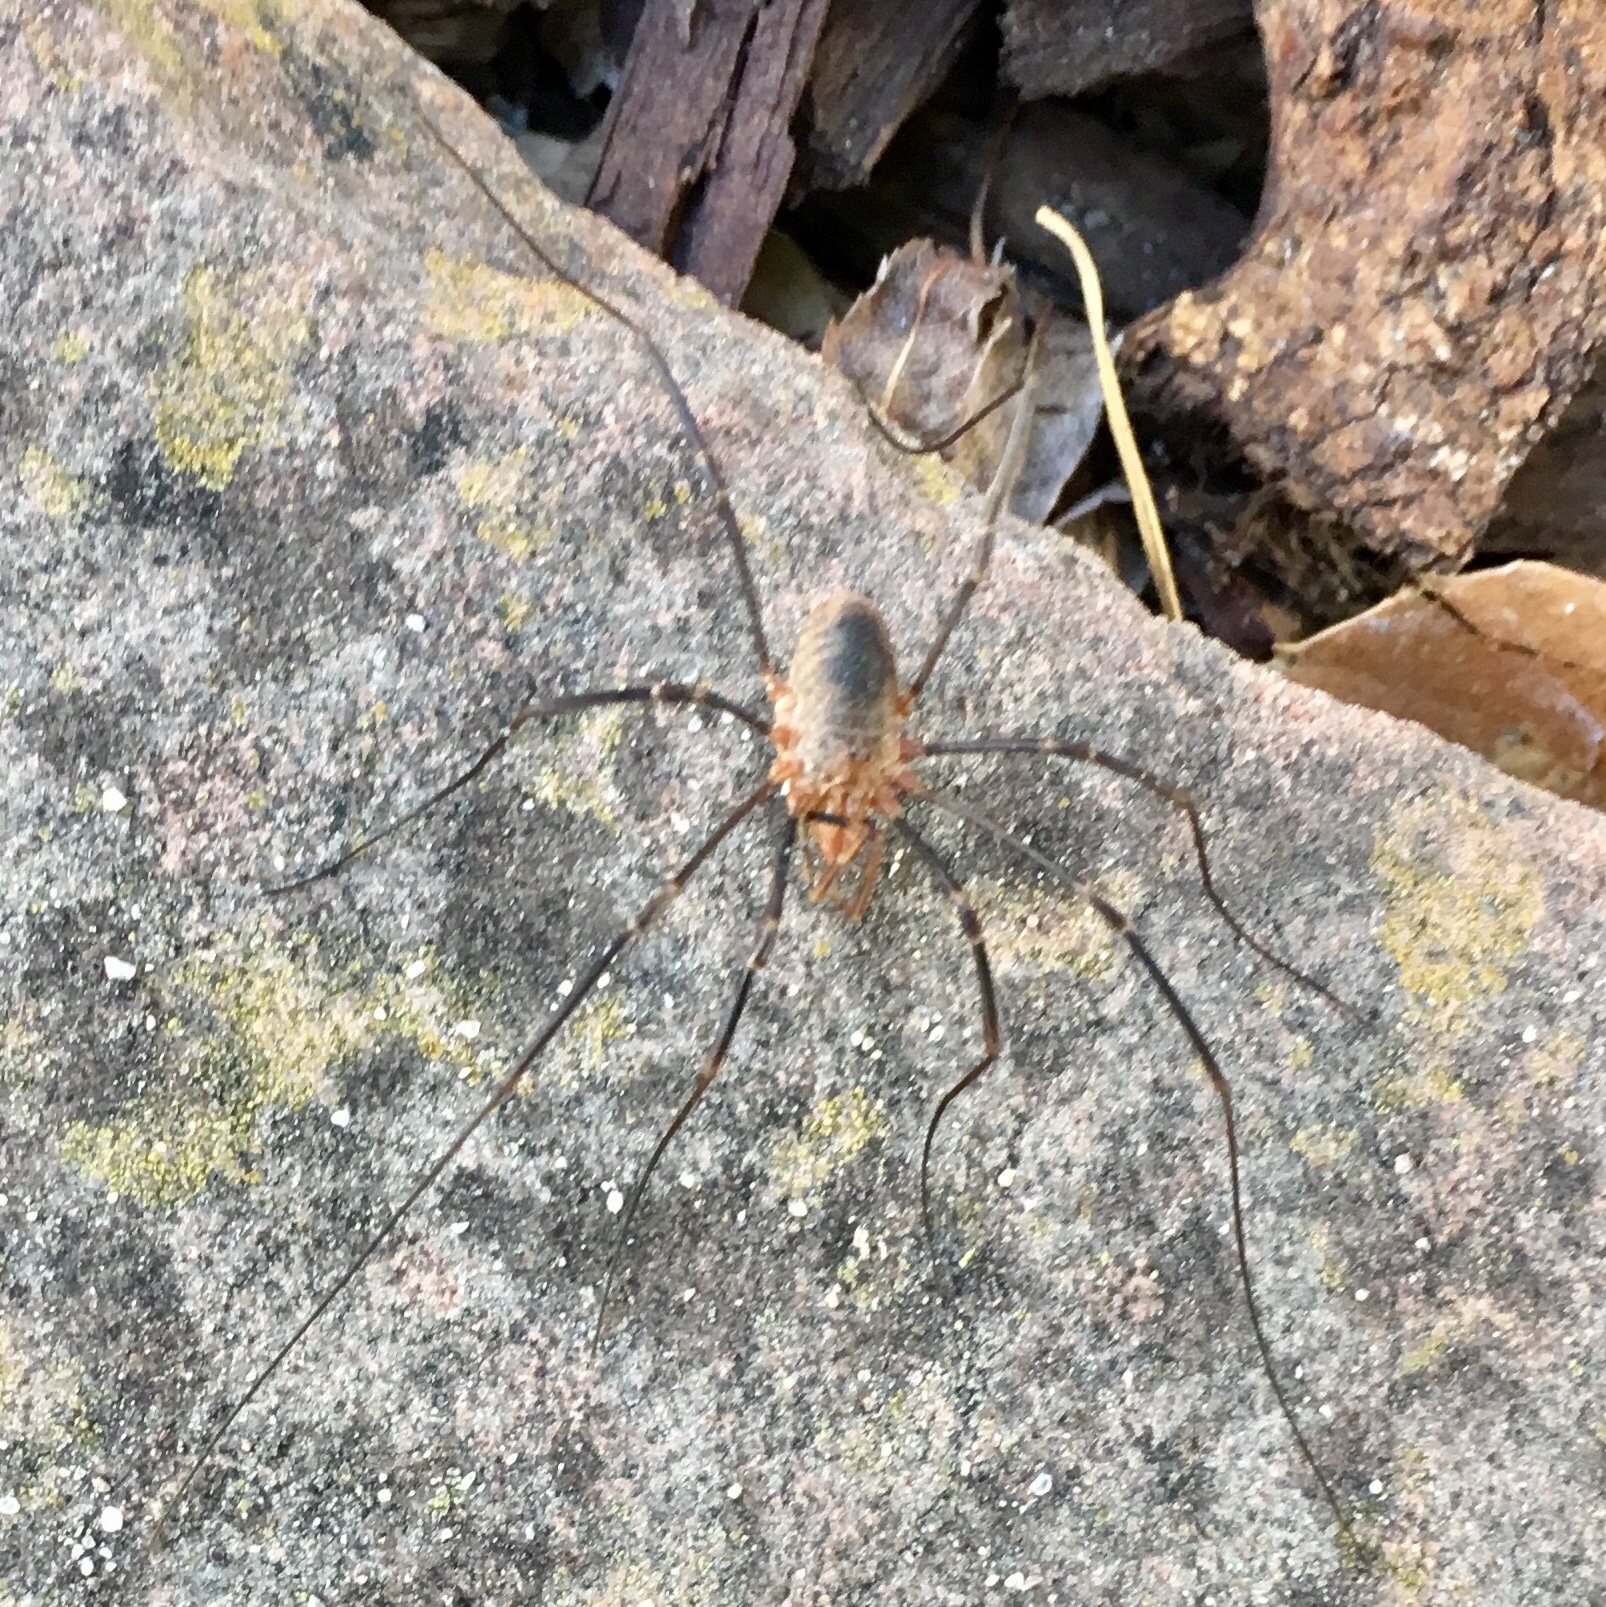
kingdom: Animalia
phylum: Arthropoda
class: Arachnida
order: Opiliones
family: Phalangiidae
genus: Phalangium
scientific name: Phalangium opilio
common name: Daddy longleg
